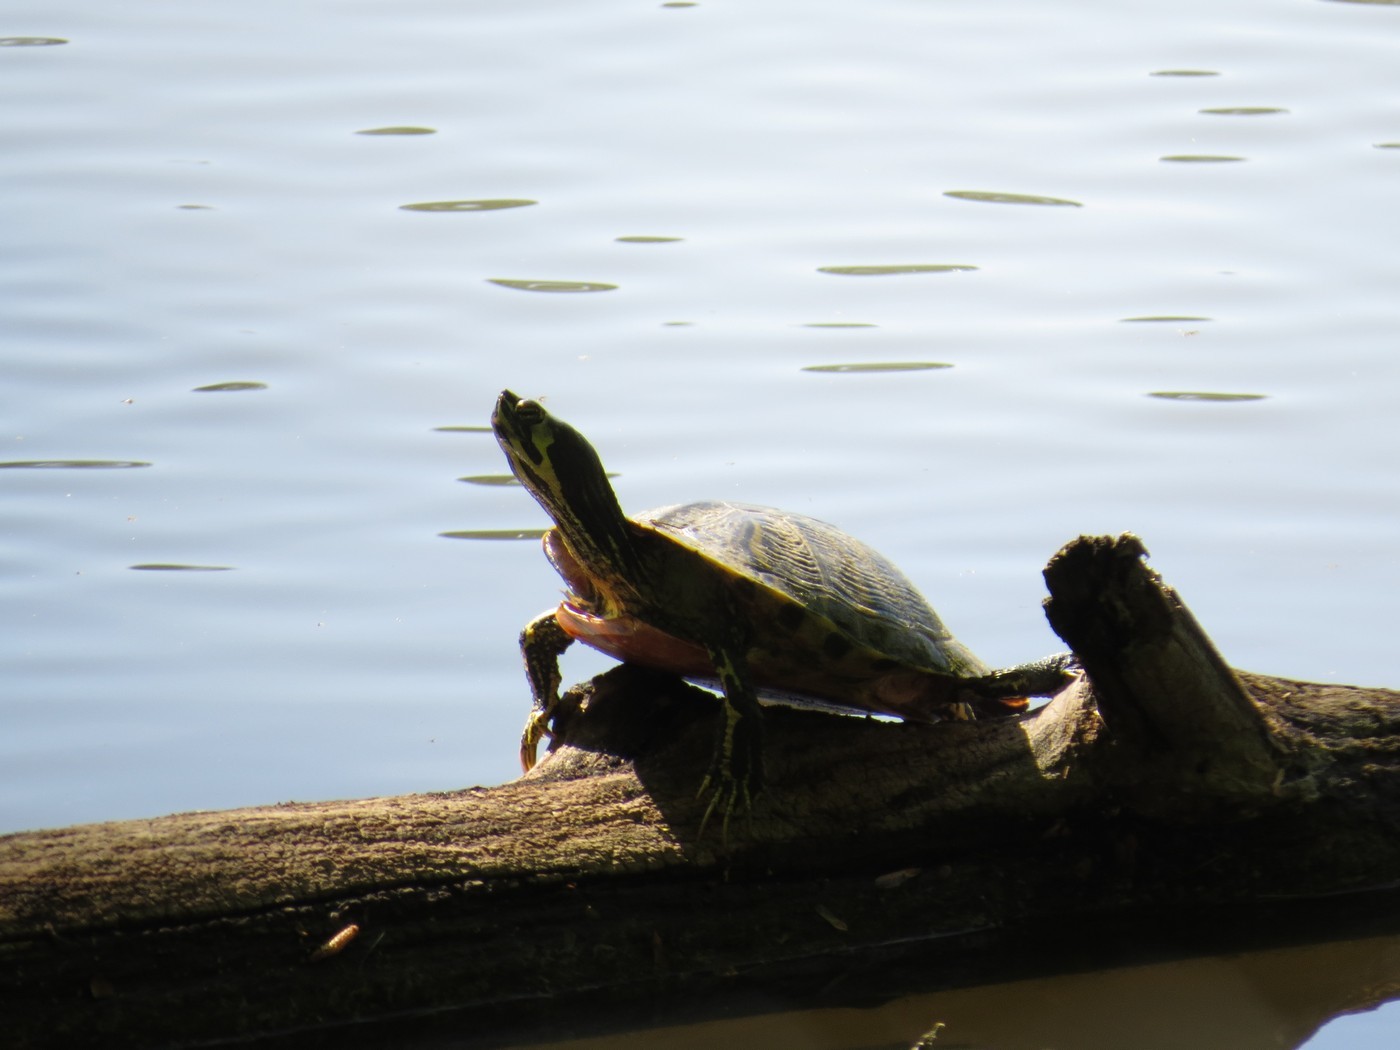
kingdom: Animalia
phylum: Chordata
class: Testudines
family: Emydidae
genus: Trachemys
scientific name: Trachemys scripta
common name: Slider
